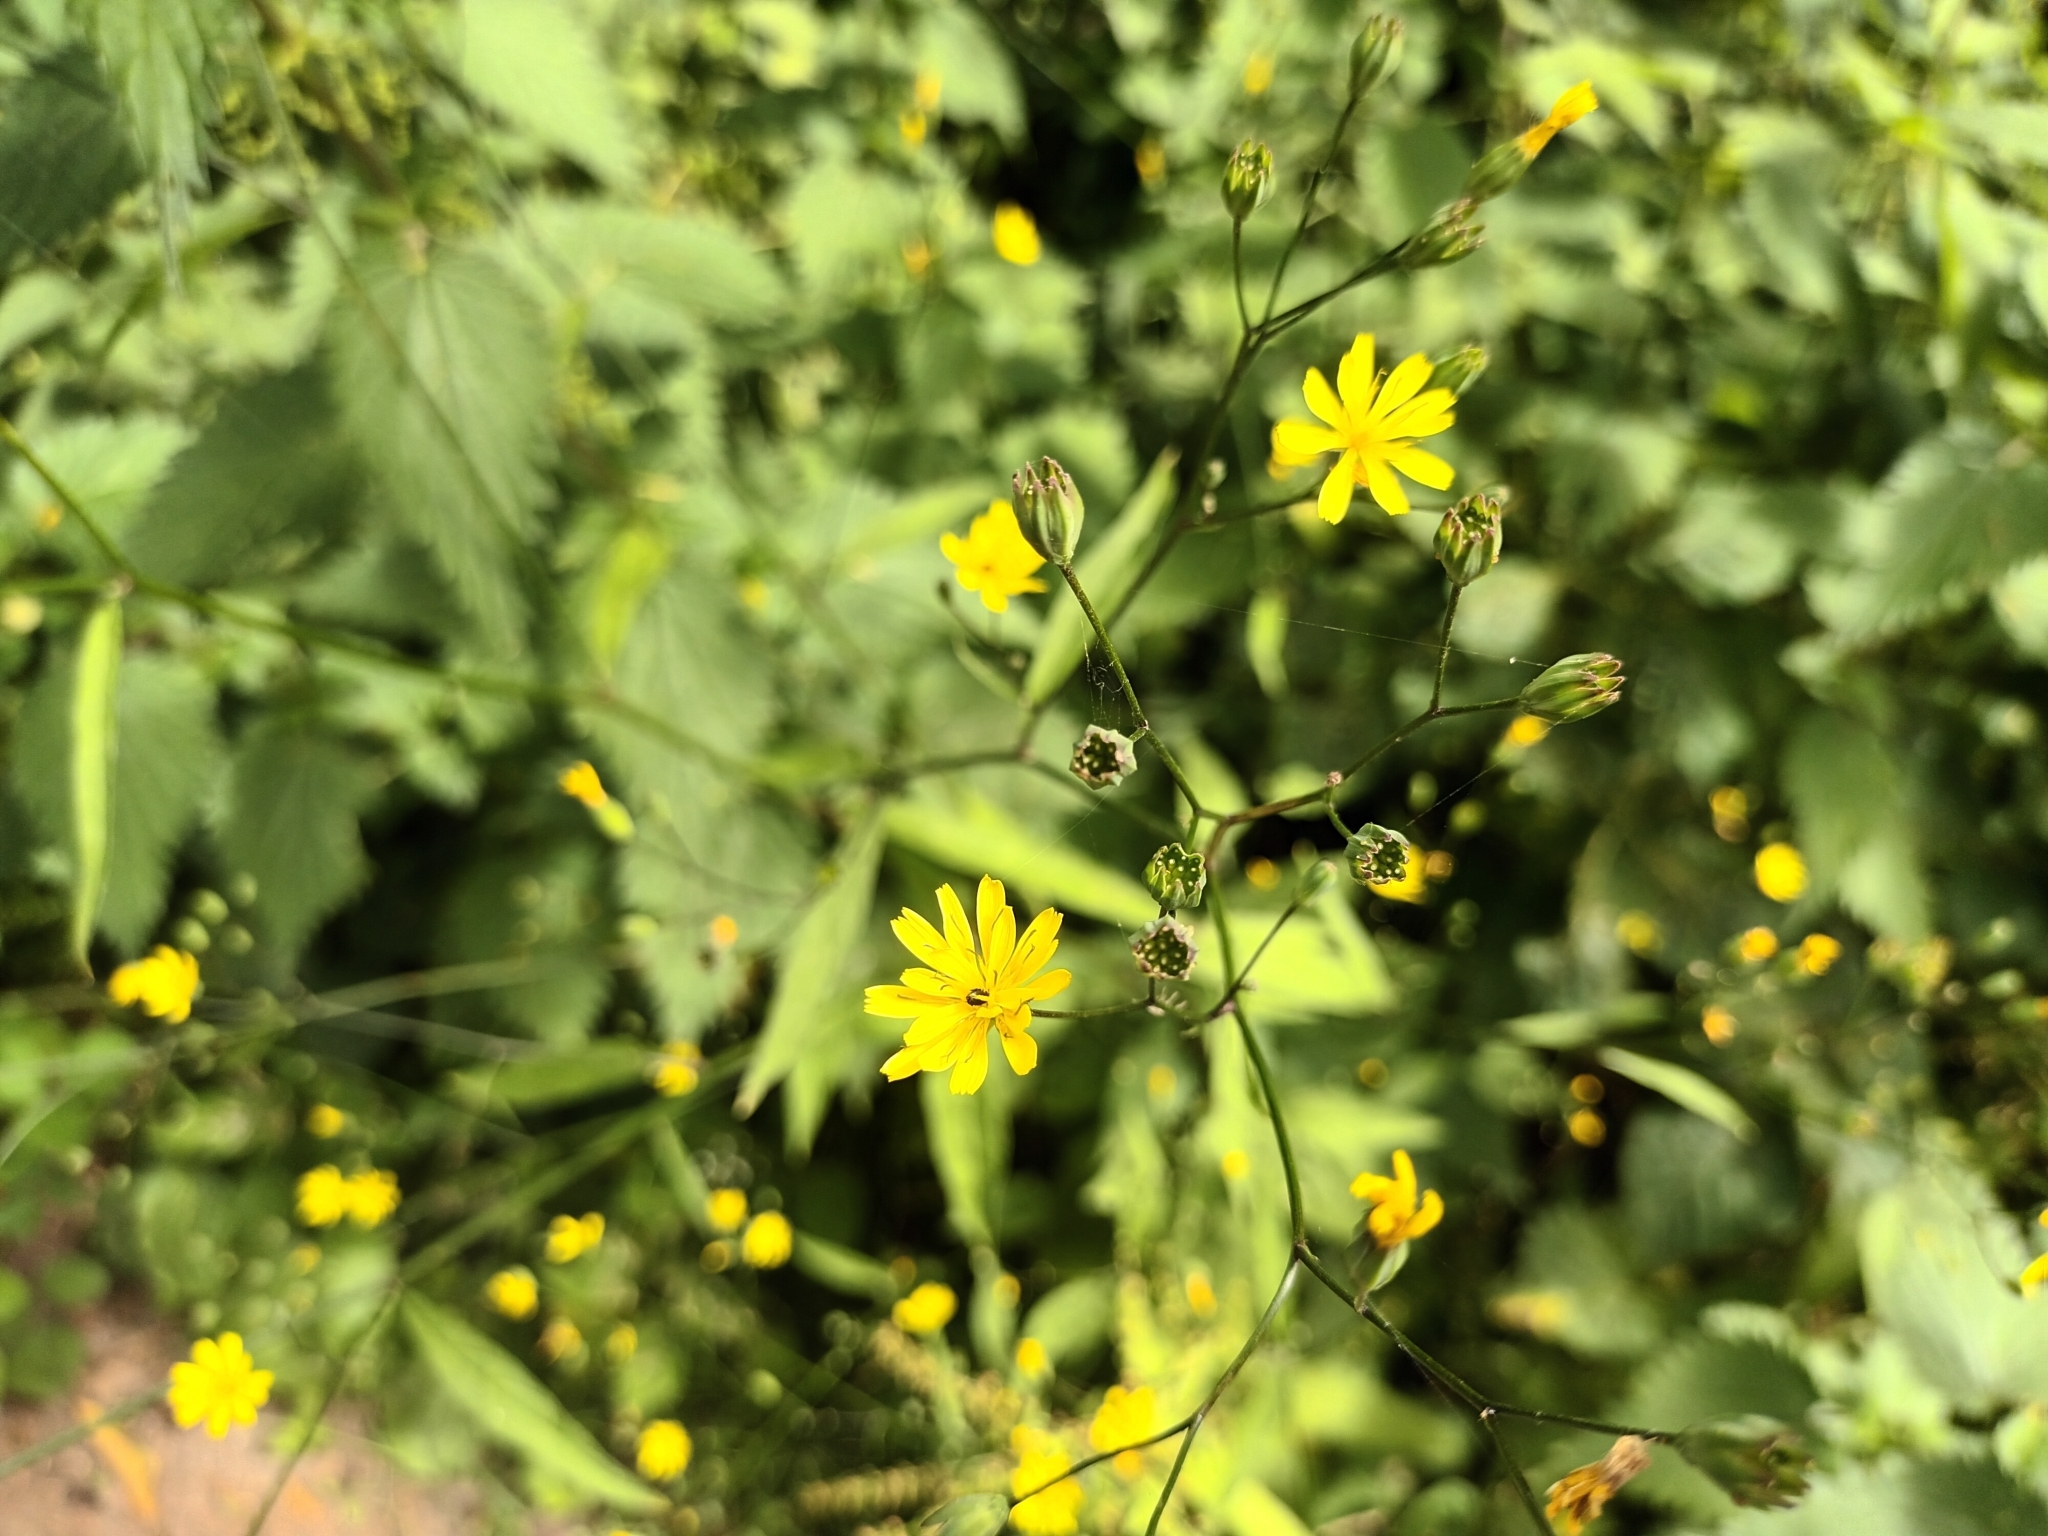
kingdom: Plantae
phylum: Tracheophyta
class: Magnoliopsida
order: Asterales
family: Asteraceae
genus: Lapsana
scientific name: Lapsana communis
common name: Nipplewort
